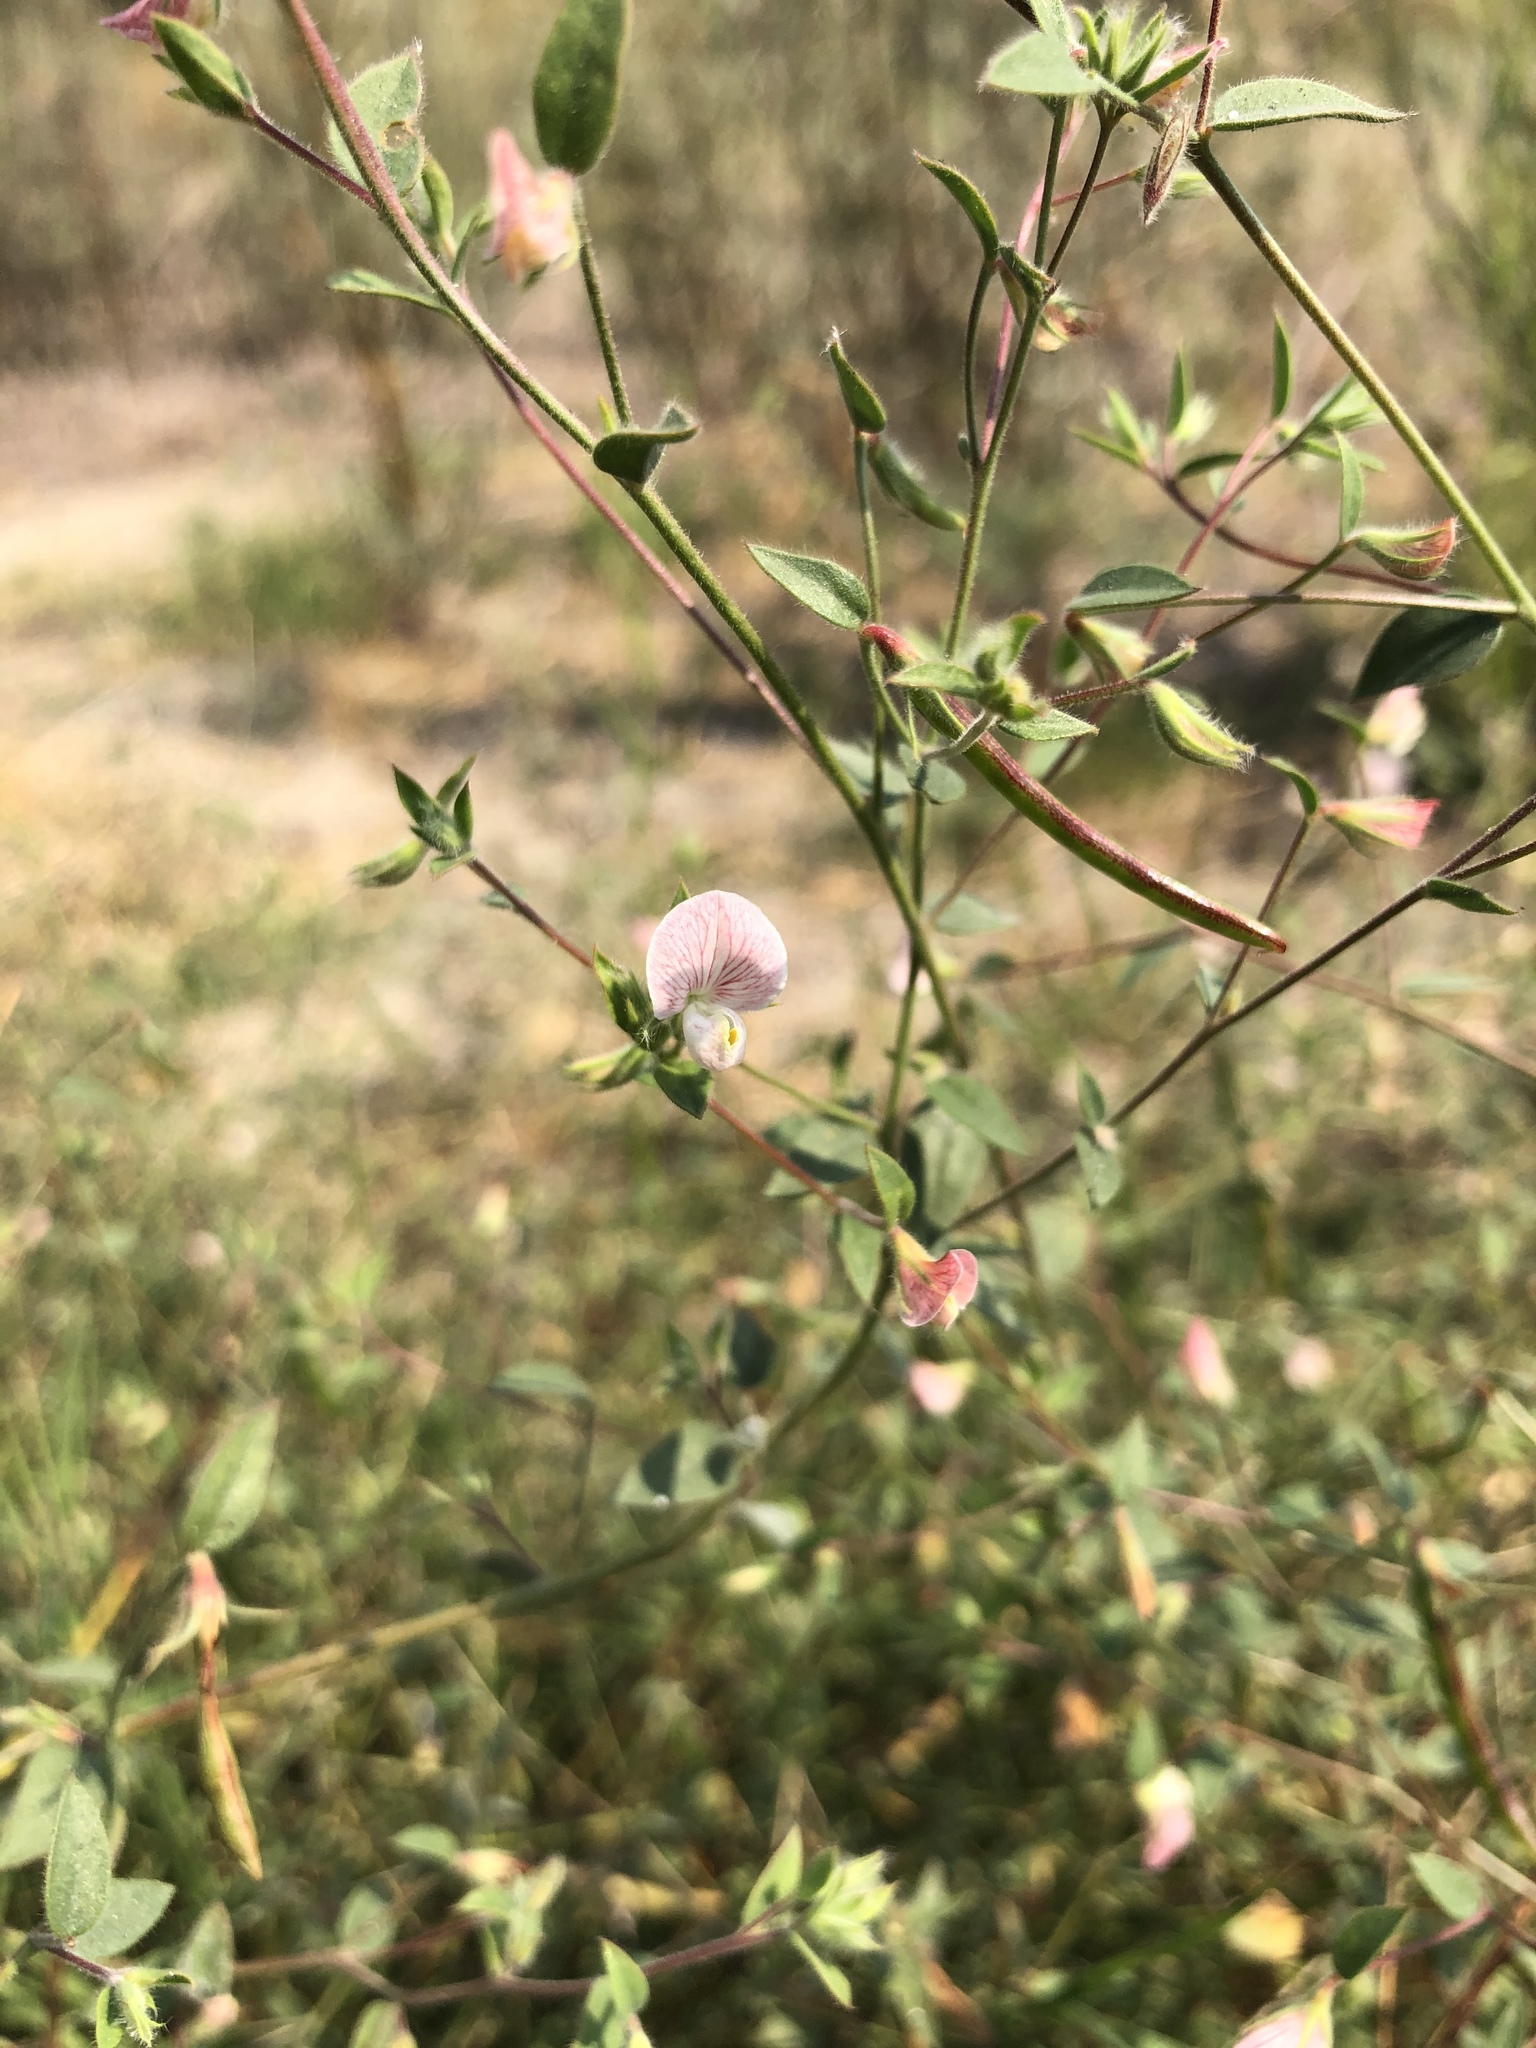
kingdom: Plantae
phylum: Tracheophyta
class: Magnoliopsida
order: Fabales
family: Fabaceae
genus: Acmispon
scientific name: Acmispon americanus
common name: American bird's-foot trefoil
